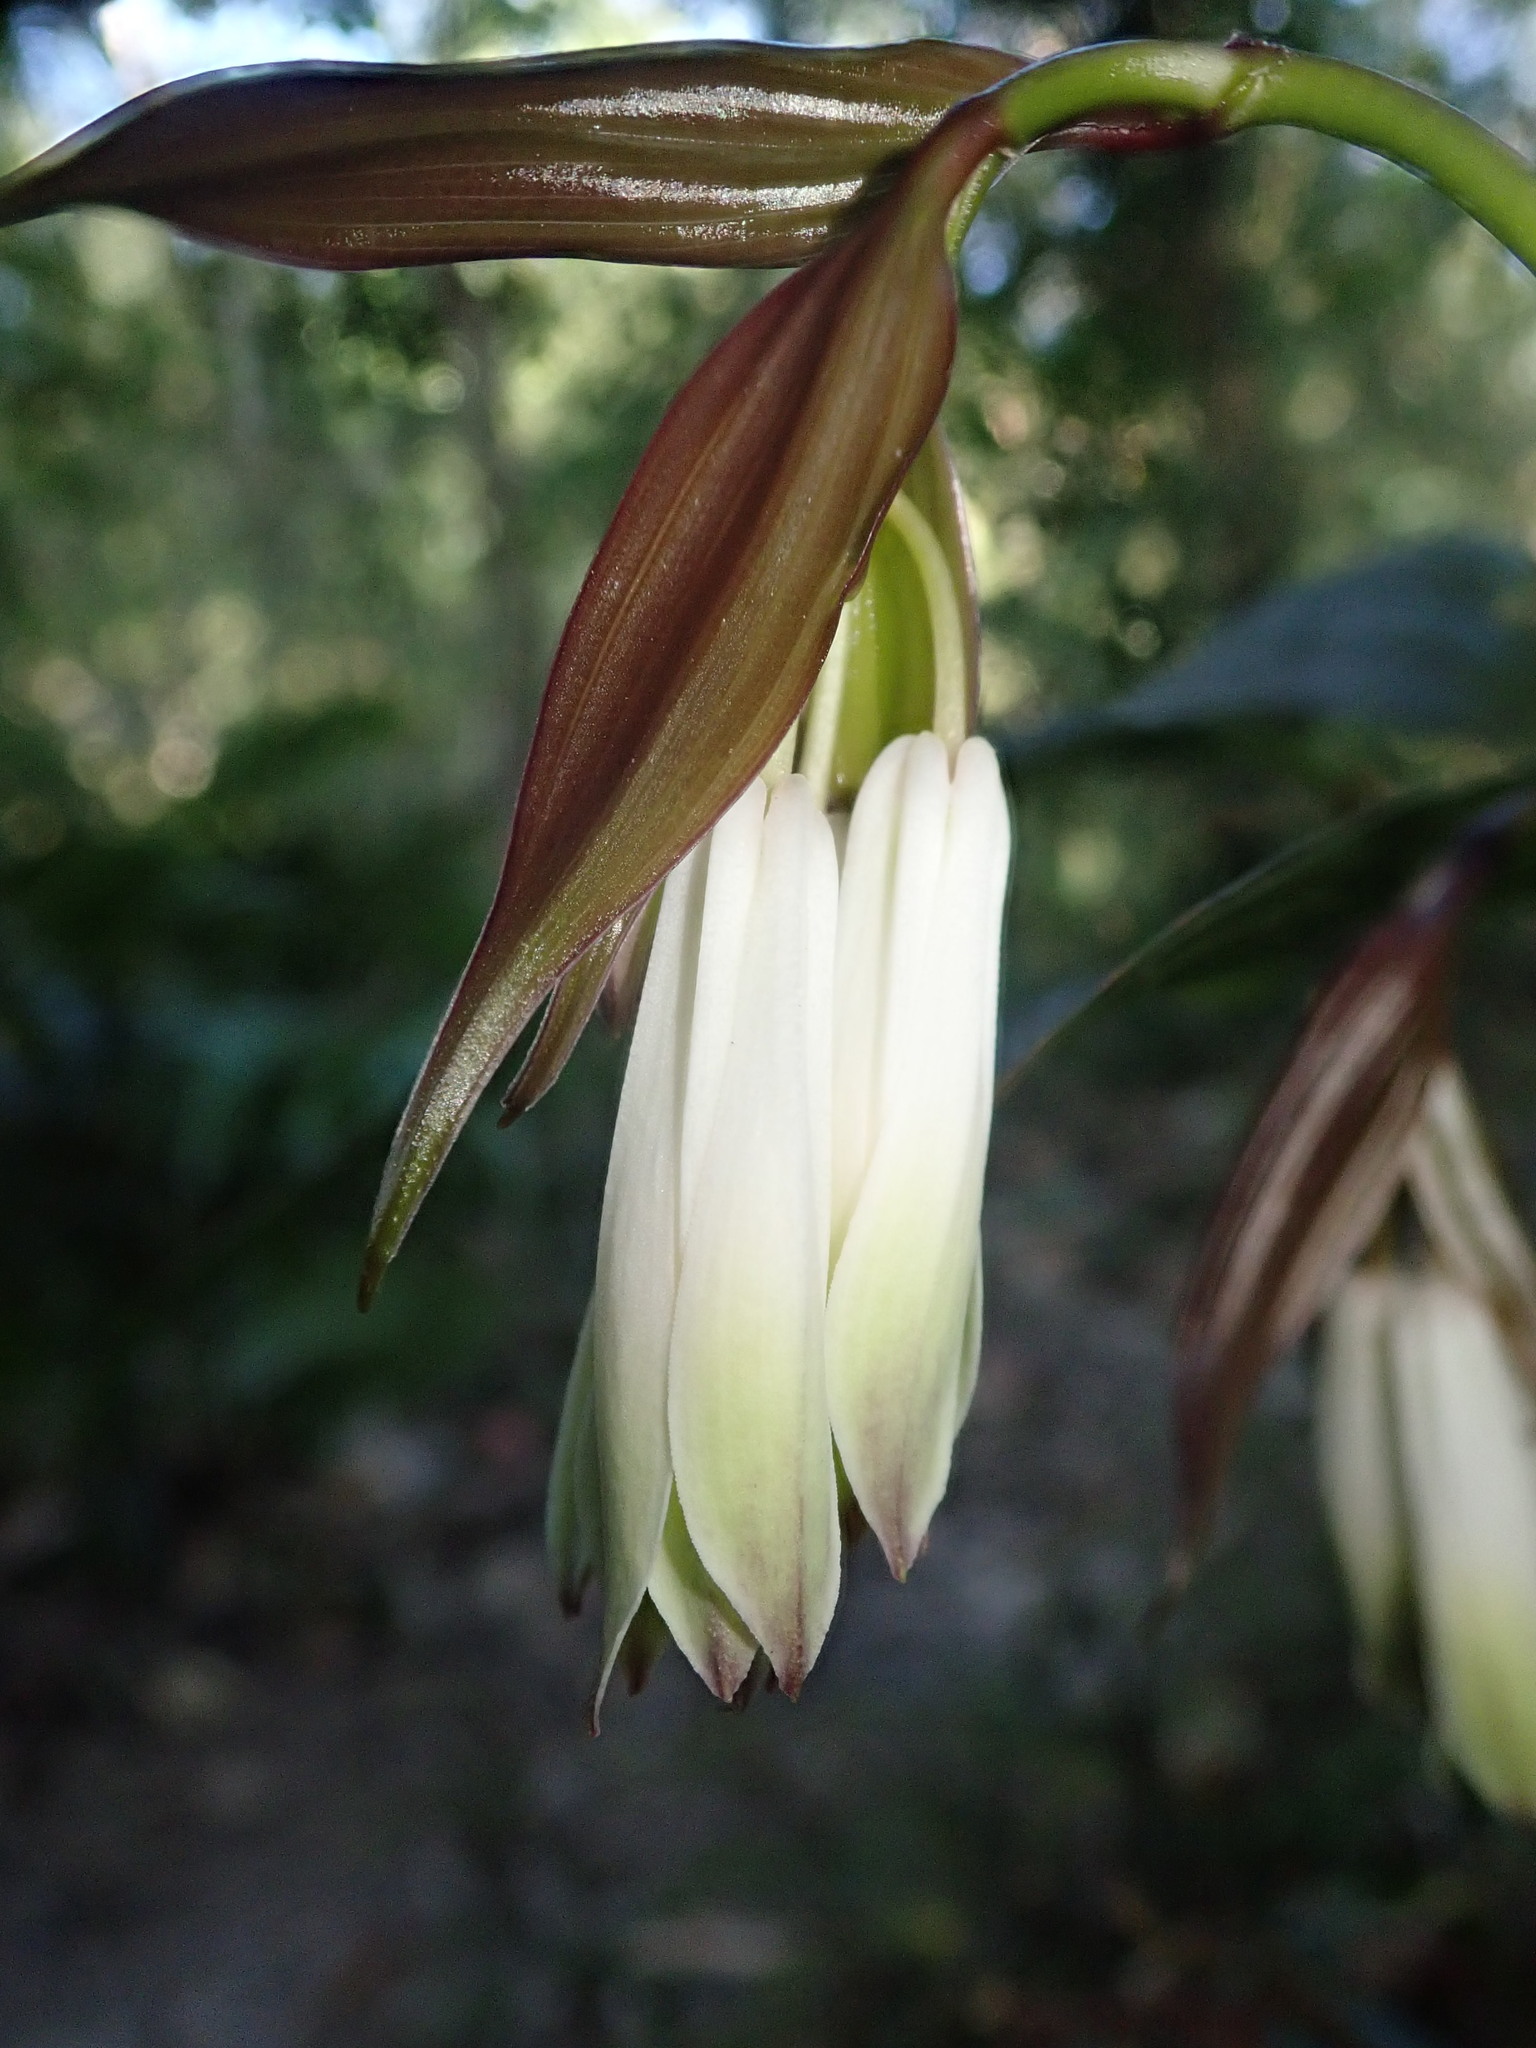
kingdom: Plantae
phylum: Tracheophyta
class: Liliopsida
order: Liliales
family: Colchicaceae
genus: Disporum
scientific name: Disporum trabeculatum
